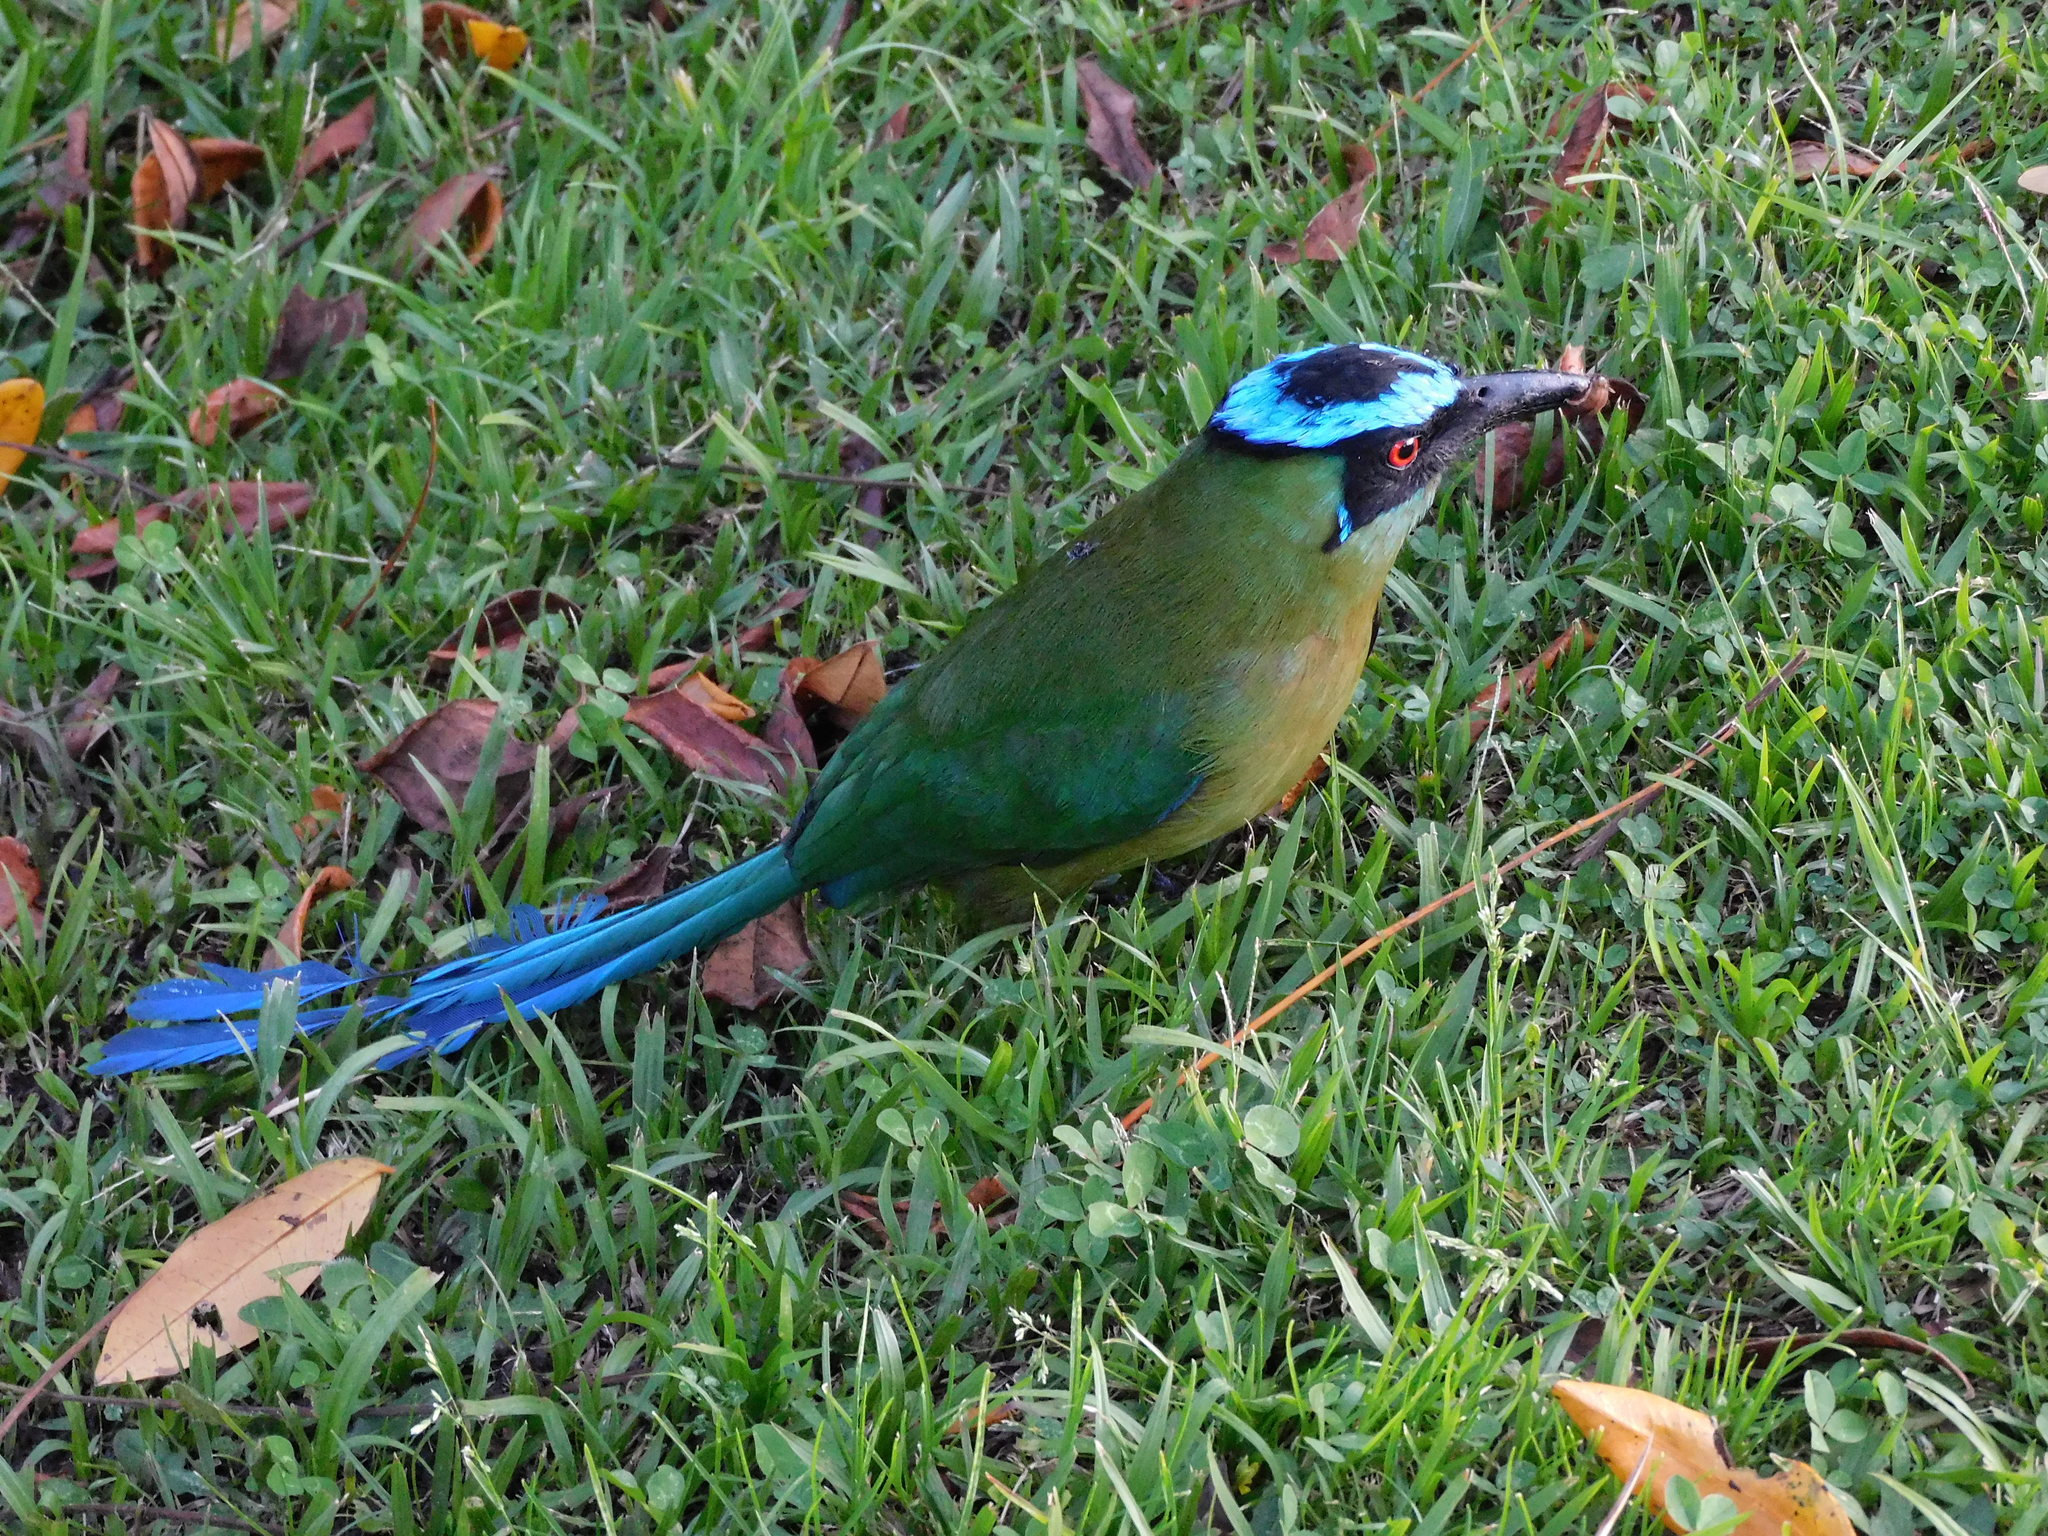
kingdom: Animalia
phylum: Chordata
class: Aves
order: Coraciiformes
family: Momotidae
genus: Momotus
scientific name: Momotus aequatorialis
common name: Andean motmot
